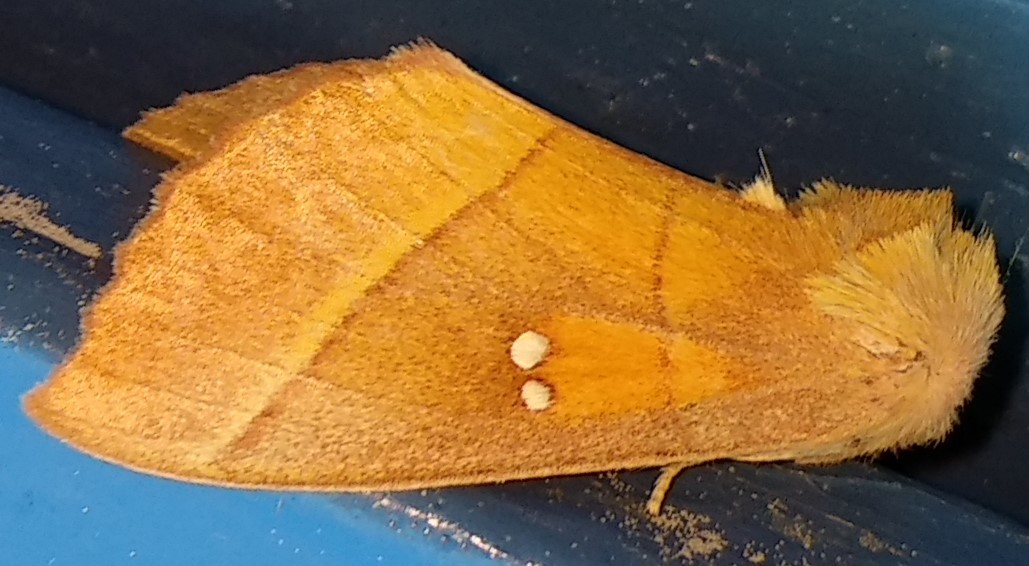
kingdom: Animalia
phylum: Arthropoda
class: Insecta
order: Lepidoptera
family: Notodontidae
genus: Nadata
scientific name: Nadata gibbosa
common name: White-dotted prominent
